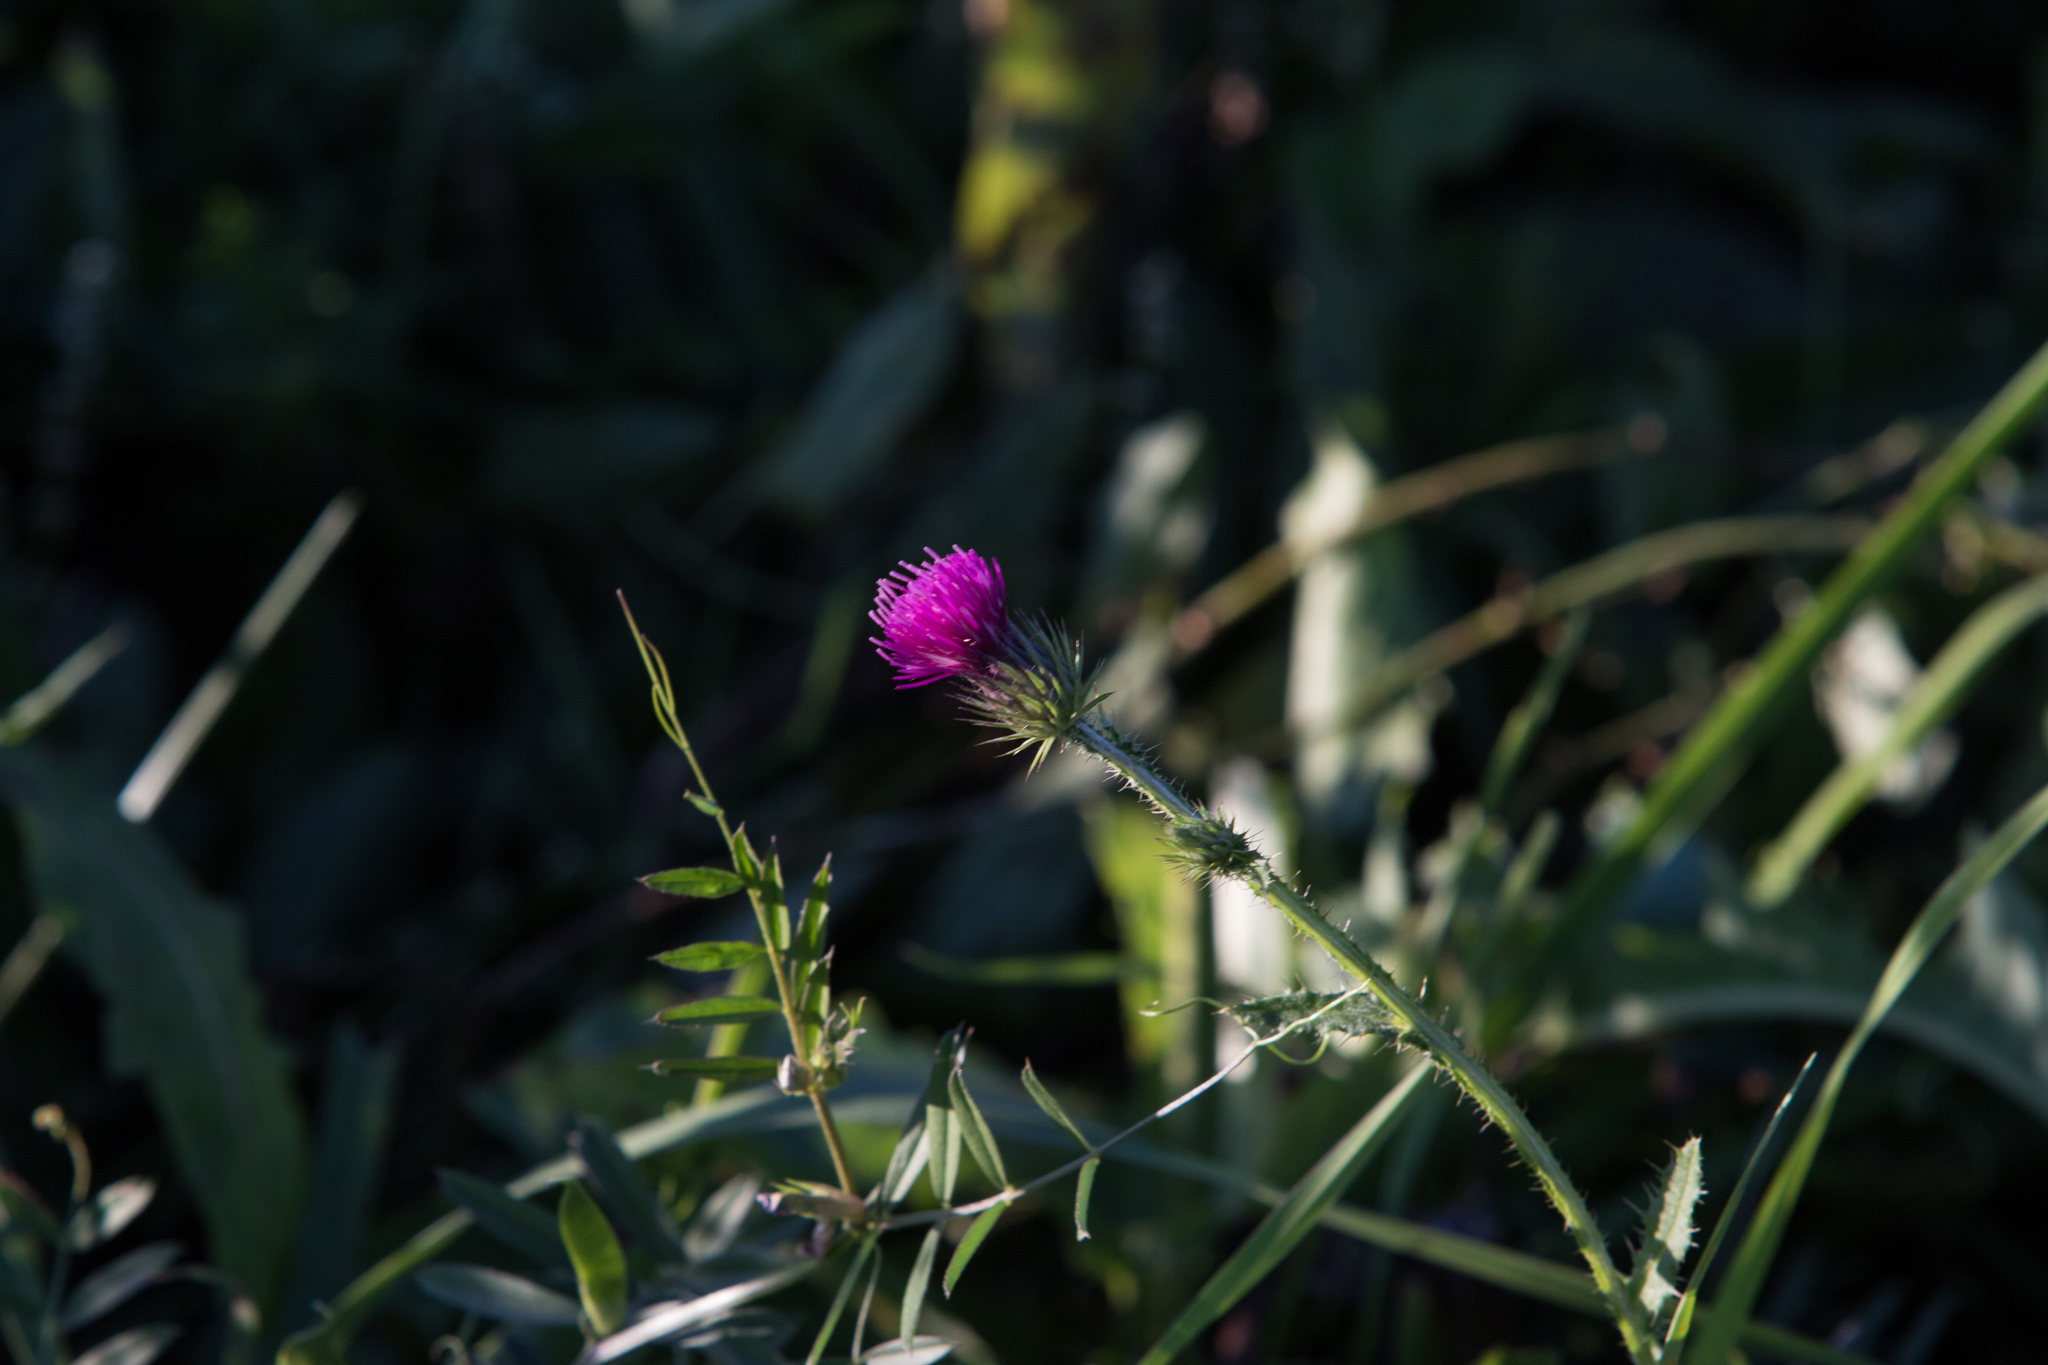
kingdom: Plantae
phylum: Tracheophyta
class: Magnoliopsida
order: Asterales
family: Asteraceae
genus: Carduus
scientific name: Carduus crispus
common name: Welted thistle
